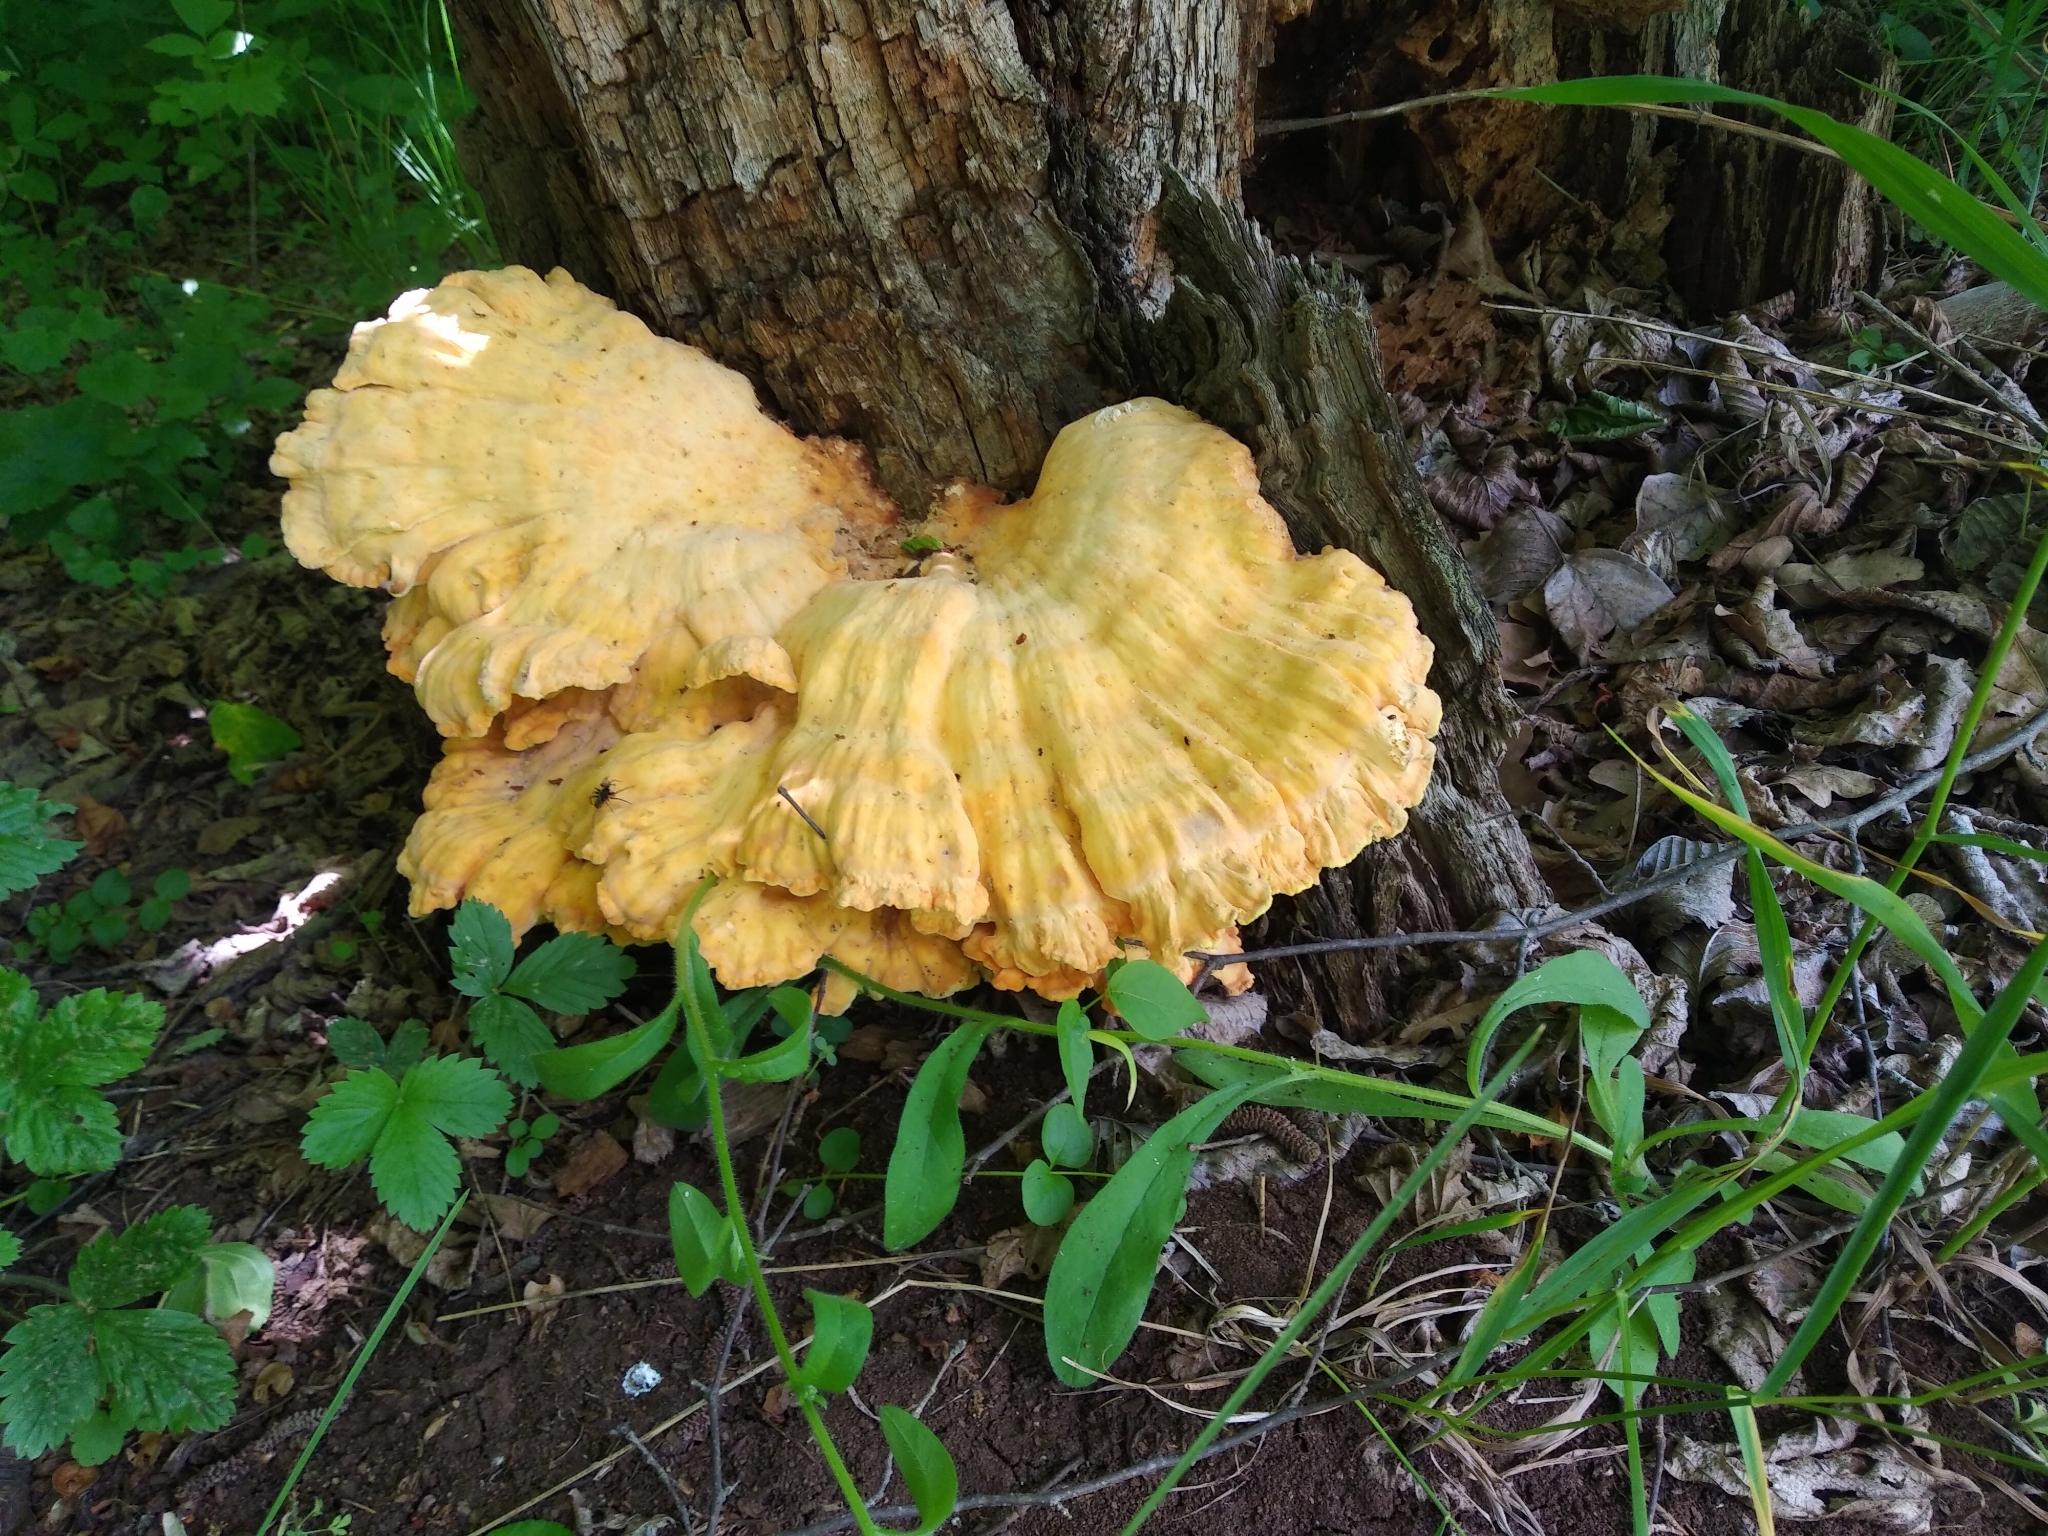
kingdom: Fungi
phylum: Basidiomycota
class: Agaricomycetes
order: Polyporales
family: Laetiporaceae
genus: Laetiporus
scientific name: Laetiporus sulphureus
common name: Chicken of the woods
